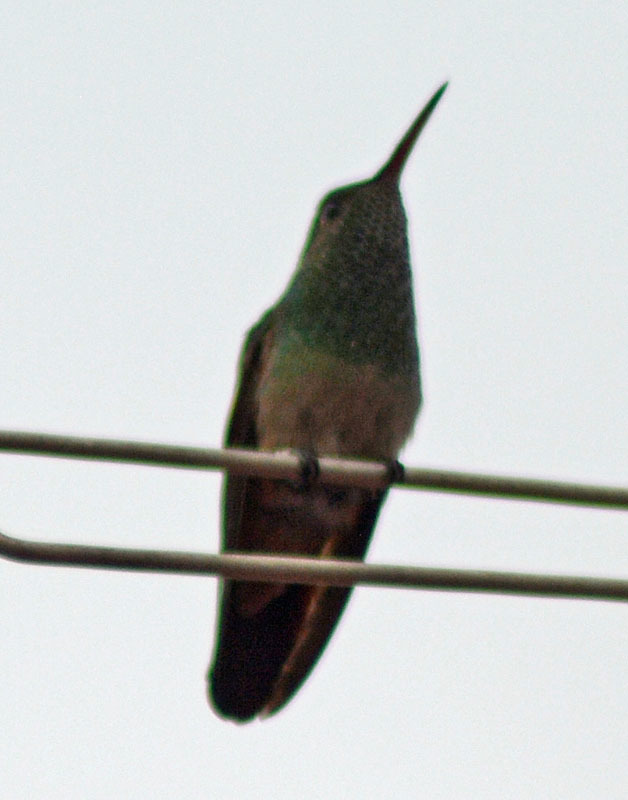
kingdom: Animalia
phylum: Chordata
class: Aves
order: Apodiformes
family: Trochilidae
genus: Saucerottia
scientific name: Saucerottia beryllina
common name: Berylline hummingbird
